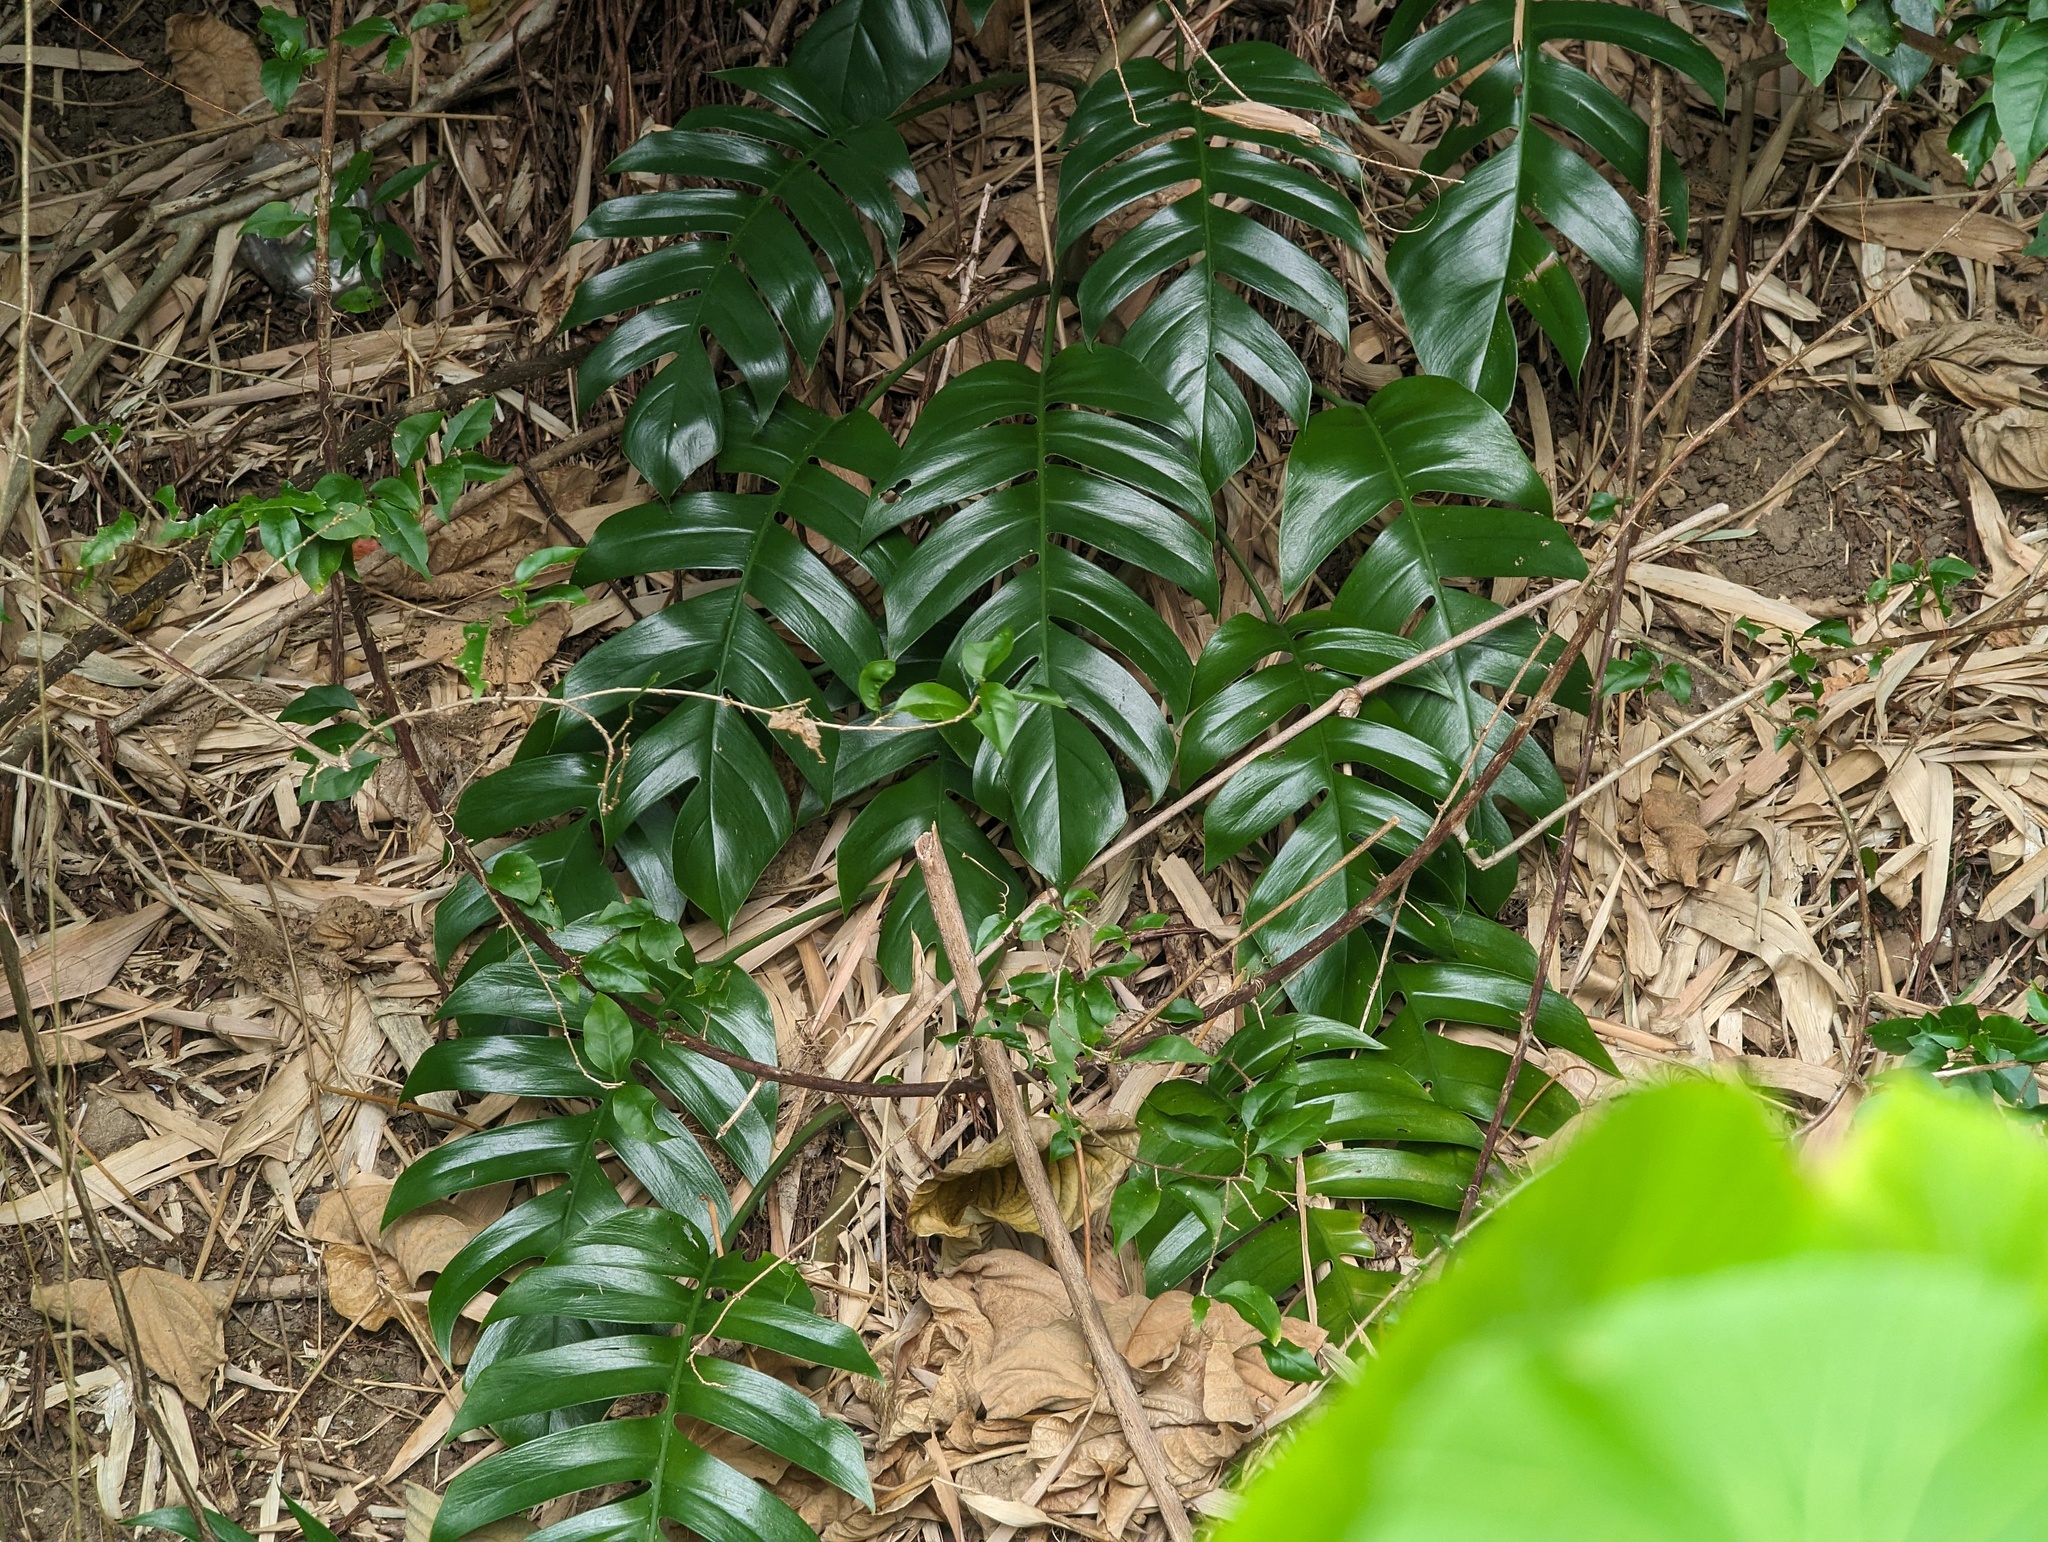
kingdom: Plantae
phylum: Tracheophyta
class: Liliopsida
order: Alismatales
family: Araceae
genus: Epipremnum
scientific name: Epipremnum pinnatum
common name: Centipede tongavine
